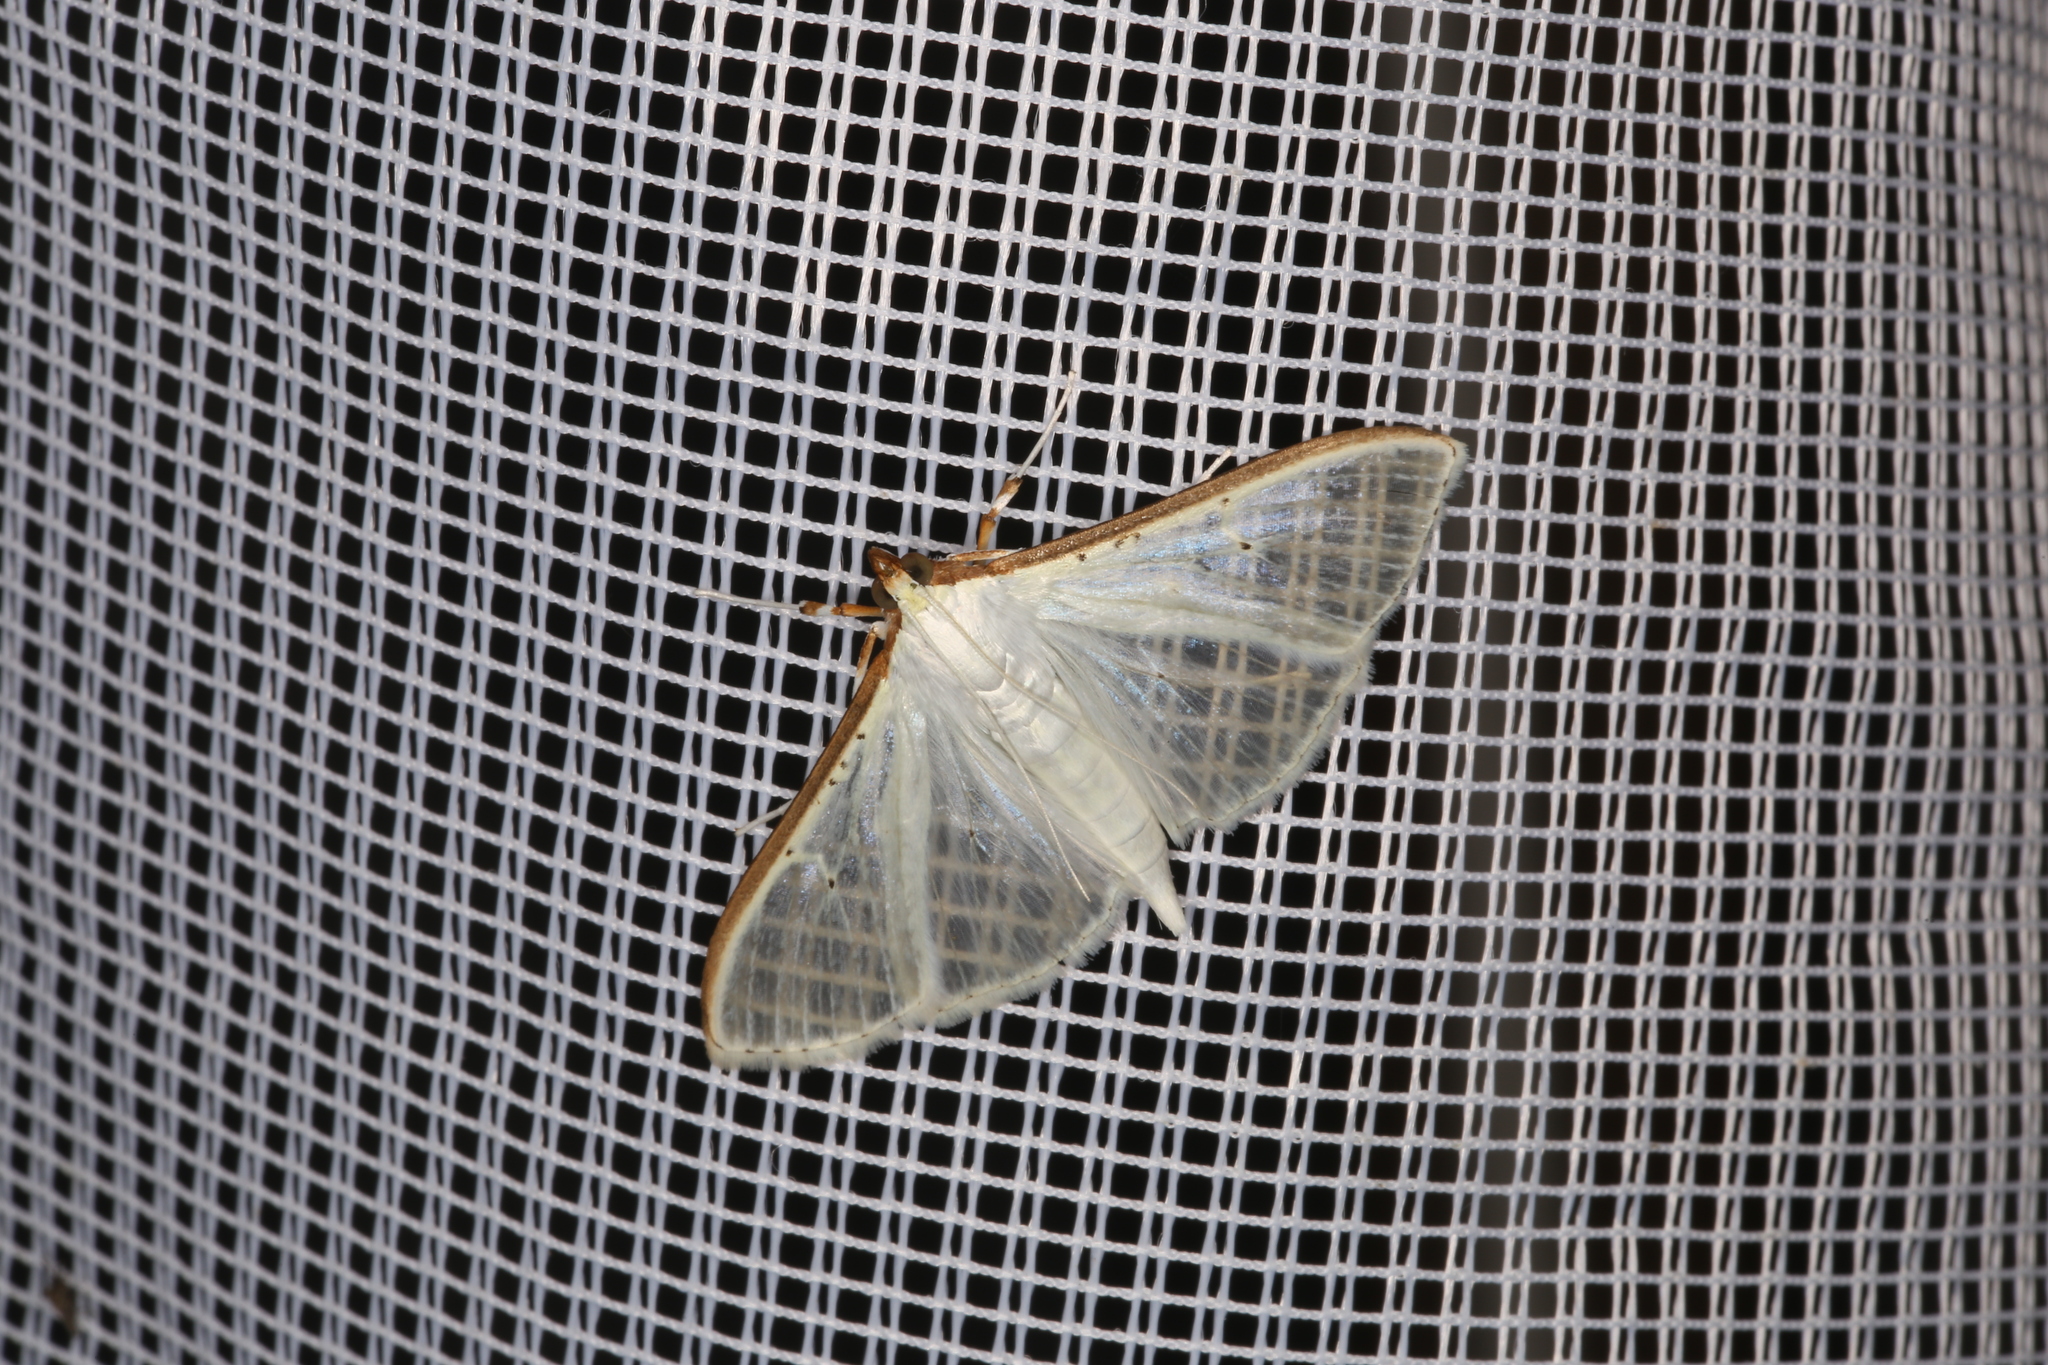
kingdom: Animalia
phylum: Arthropoda
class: Insecta
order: Lepidoptera
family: Crambidae
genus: Palpita
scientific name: Palpita vitrealis
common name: Olive-tree pearl
